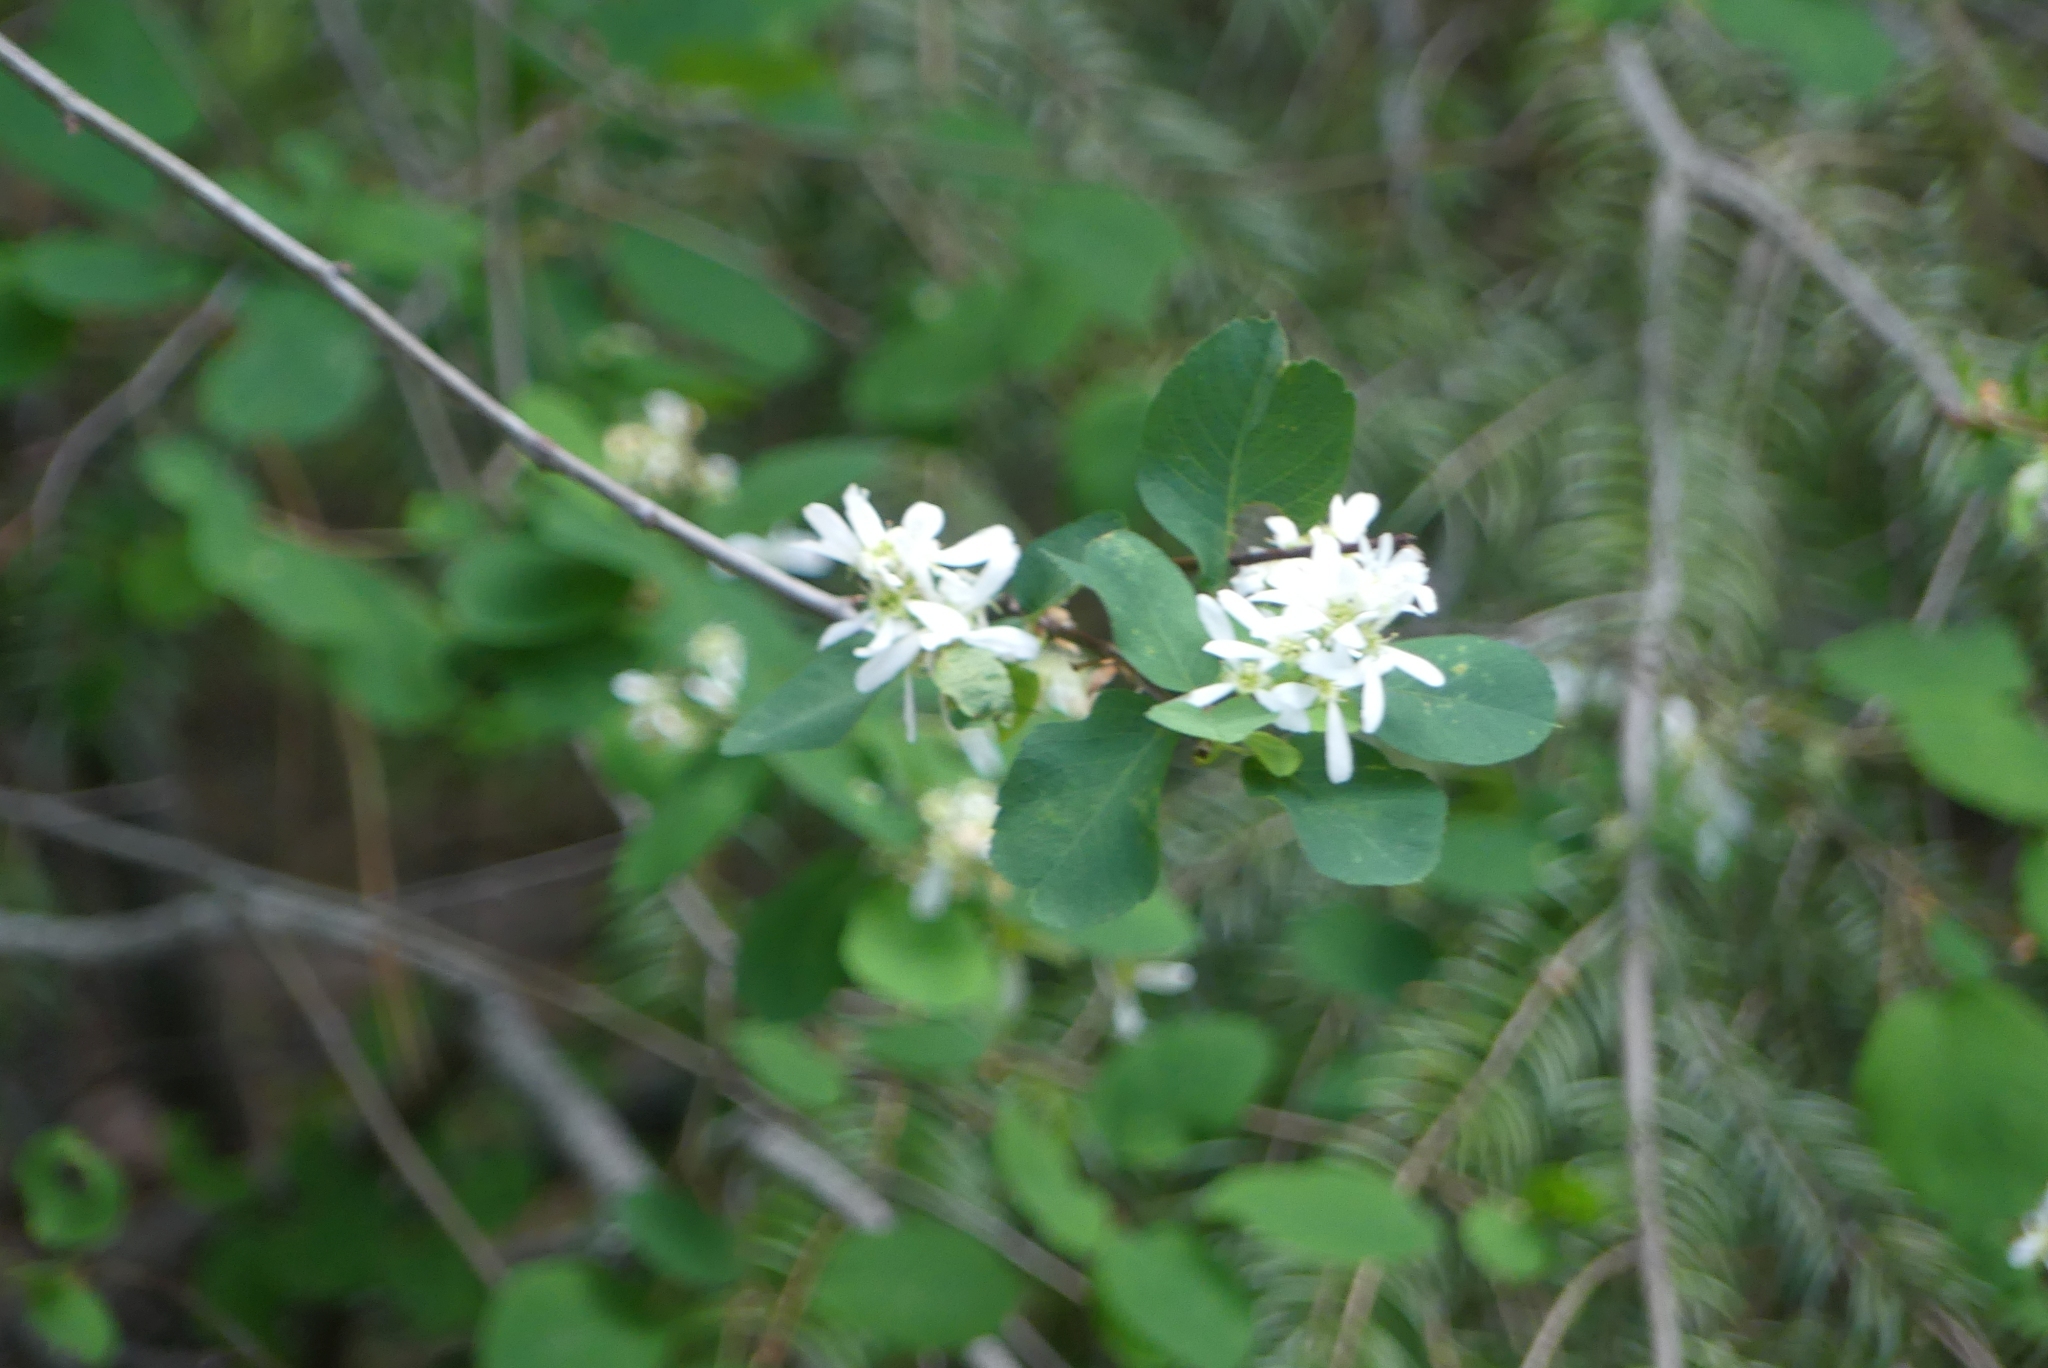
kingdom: Plantae
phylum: Tracheophyta
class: Magnoliopsida
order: Rosales
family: Rosaceae
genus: Amelanchier
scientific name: Amelanchier alnifolia
